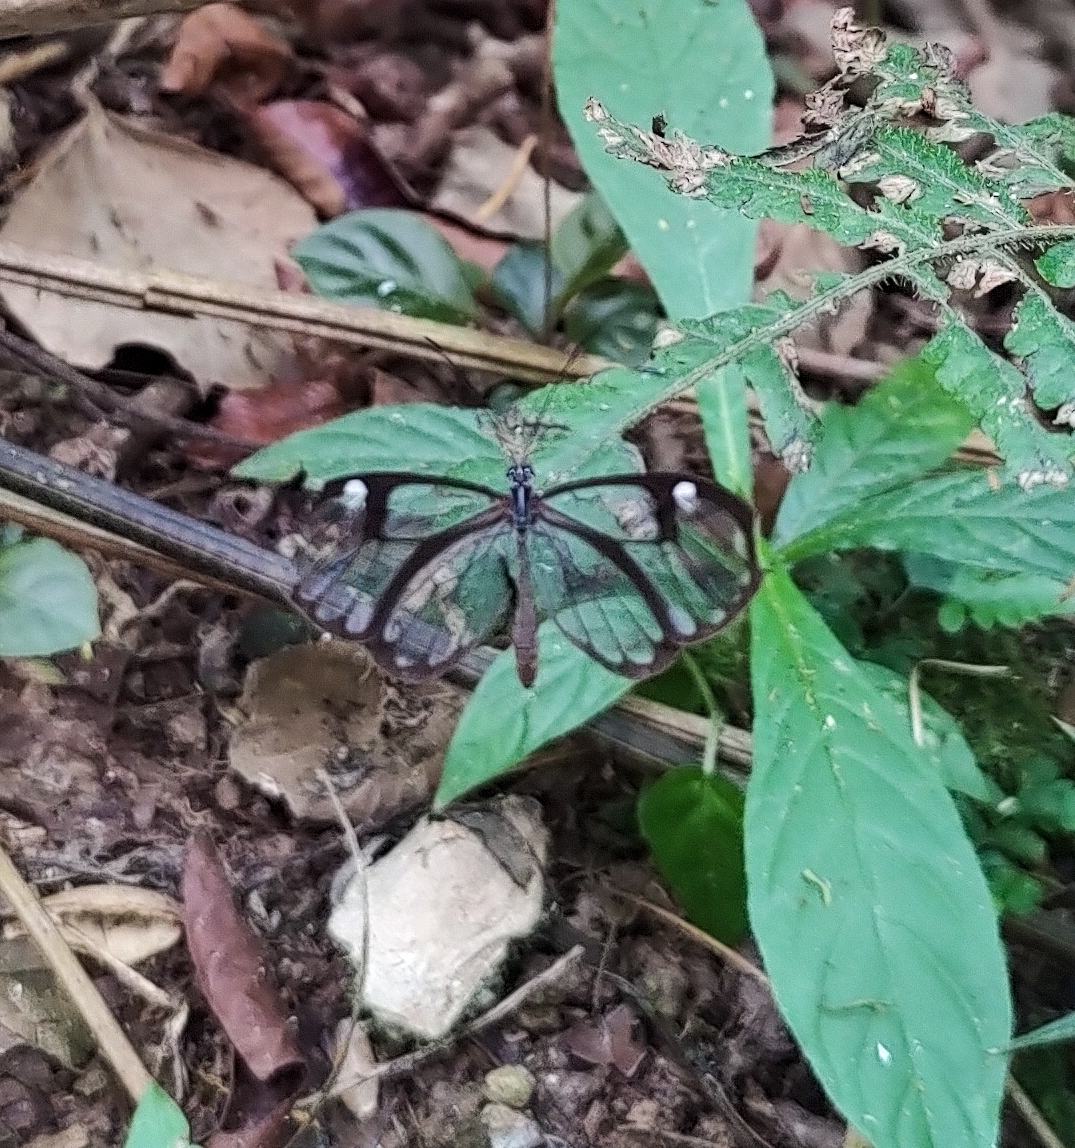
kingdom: Animalia
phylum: Arthropoda
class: Insecta
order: Lepidoptera
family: Nymphalidae
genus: Pseudoscada
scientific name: Pseudoscada erruca
